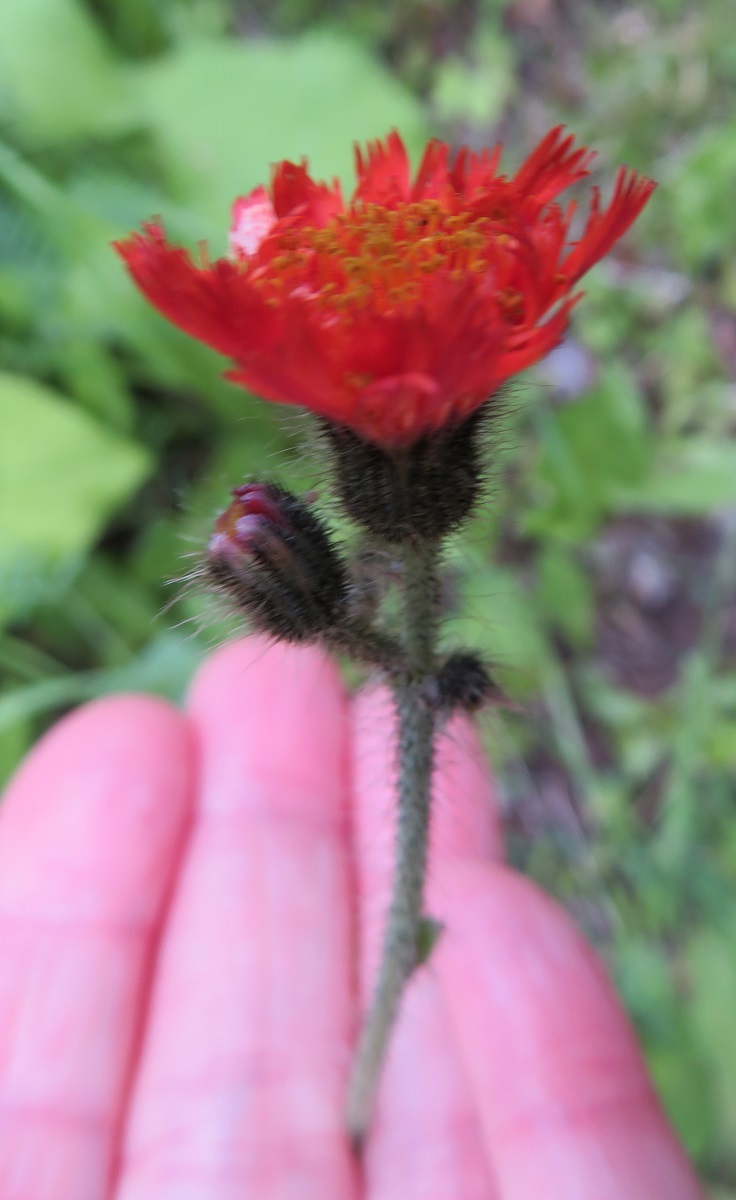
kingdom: Plantae
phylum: Tracheophyta
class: Magnoliopsida
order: Asterales
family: Asteraceae
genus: Pilosella
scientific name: Pilosella aurantiaca
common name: Fox-and-cubs
